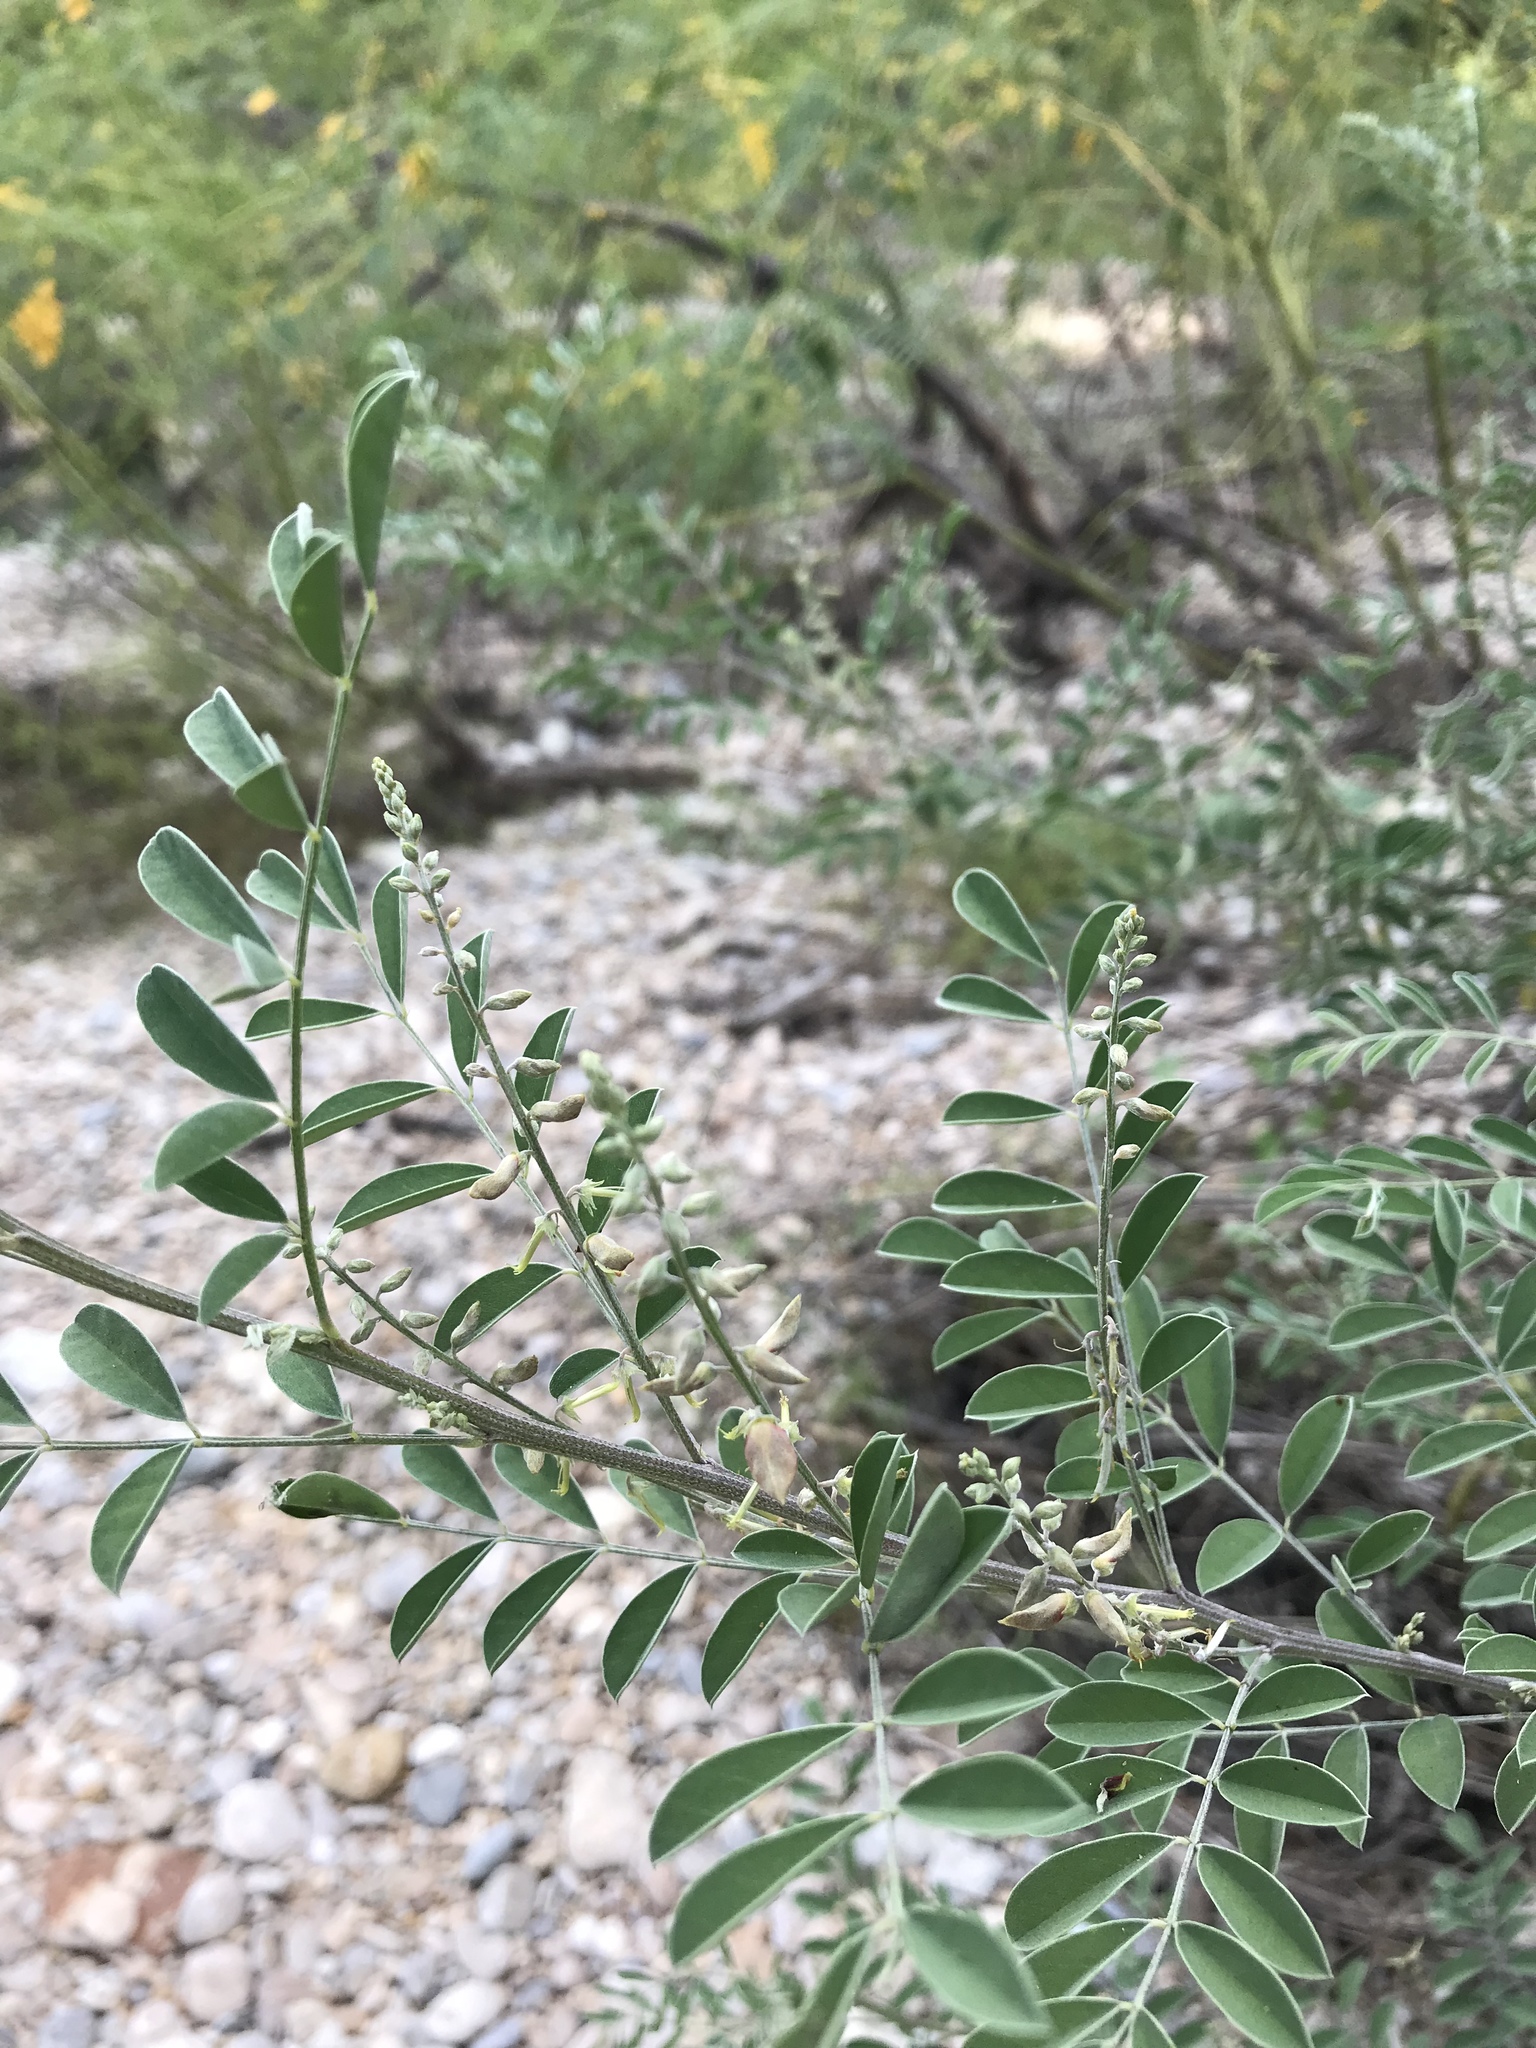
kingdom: Plantae
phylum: Tracheophyta
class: Magnoliopsida
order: Fabales
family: Fabaceae
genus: Indigofera
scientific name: Indigofera lindheimeriana
